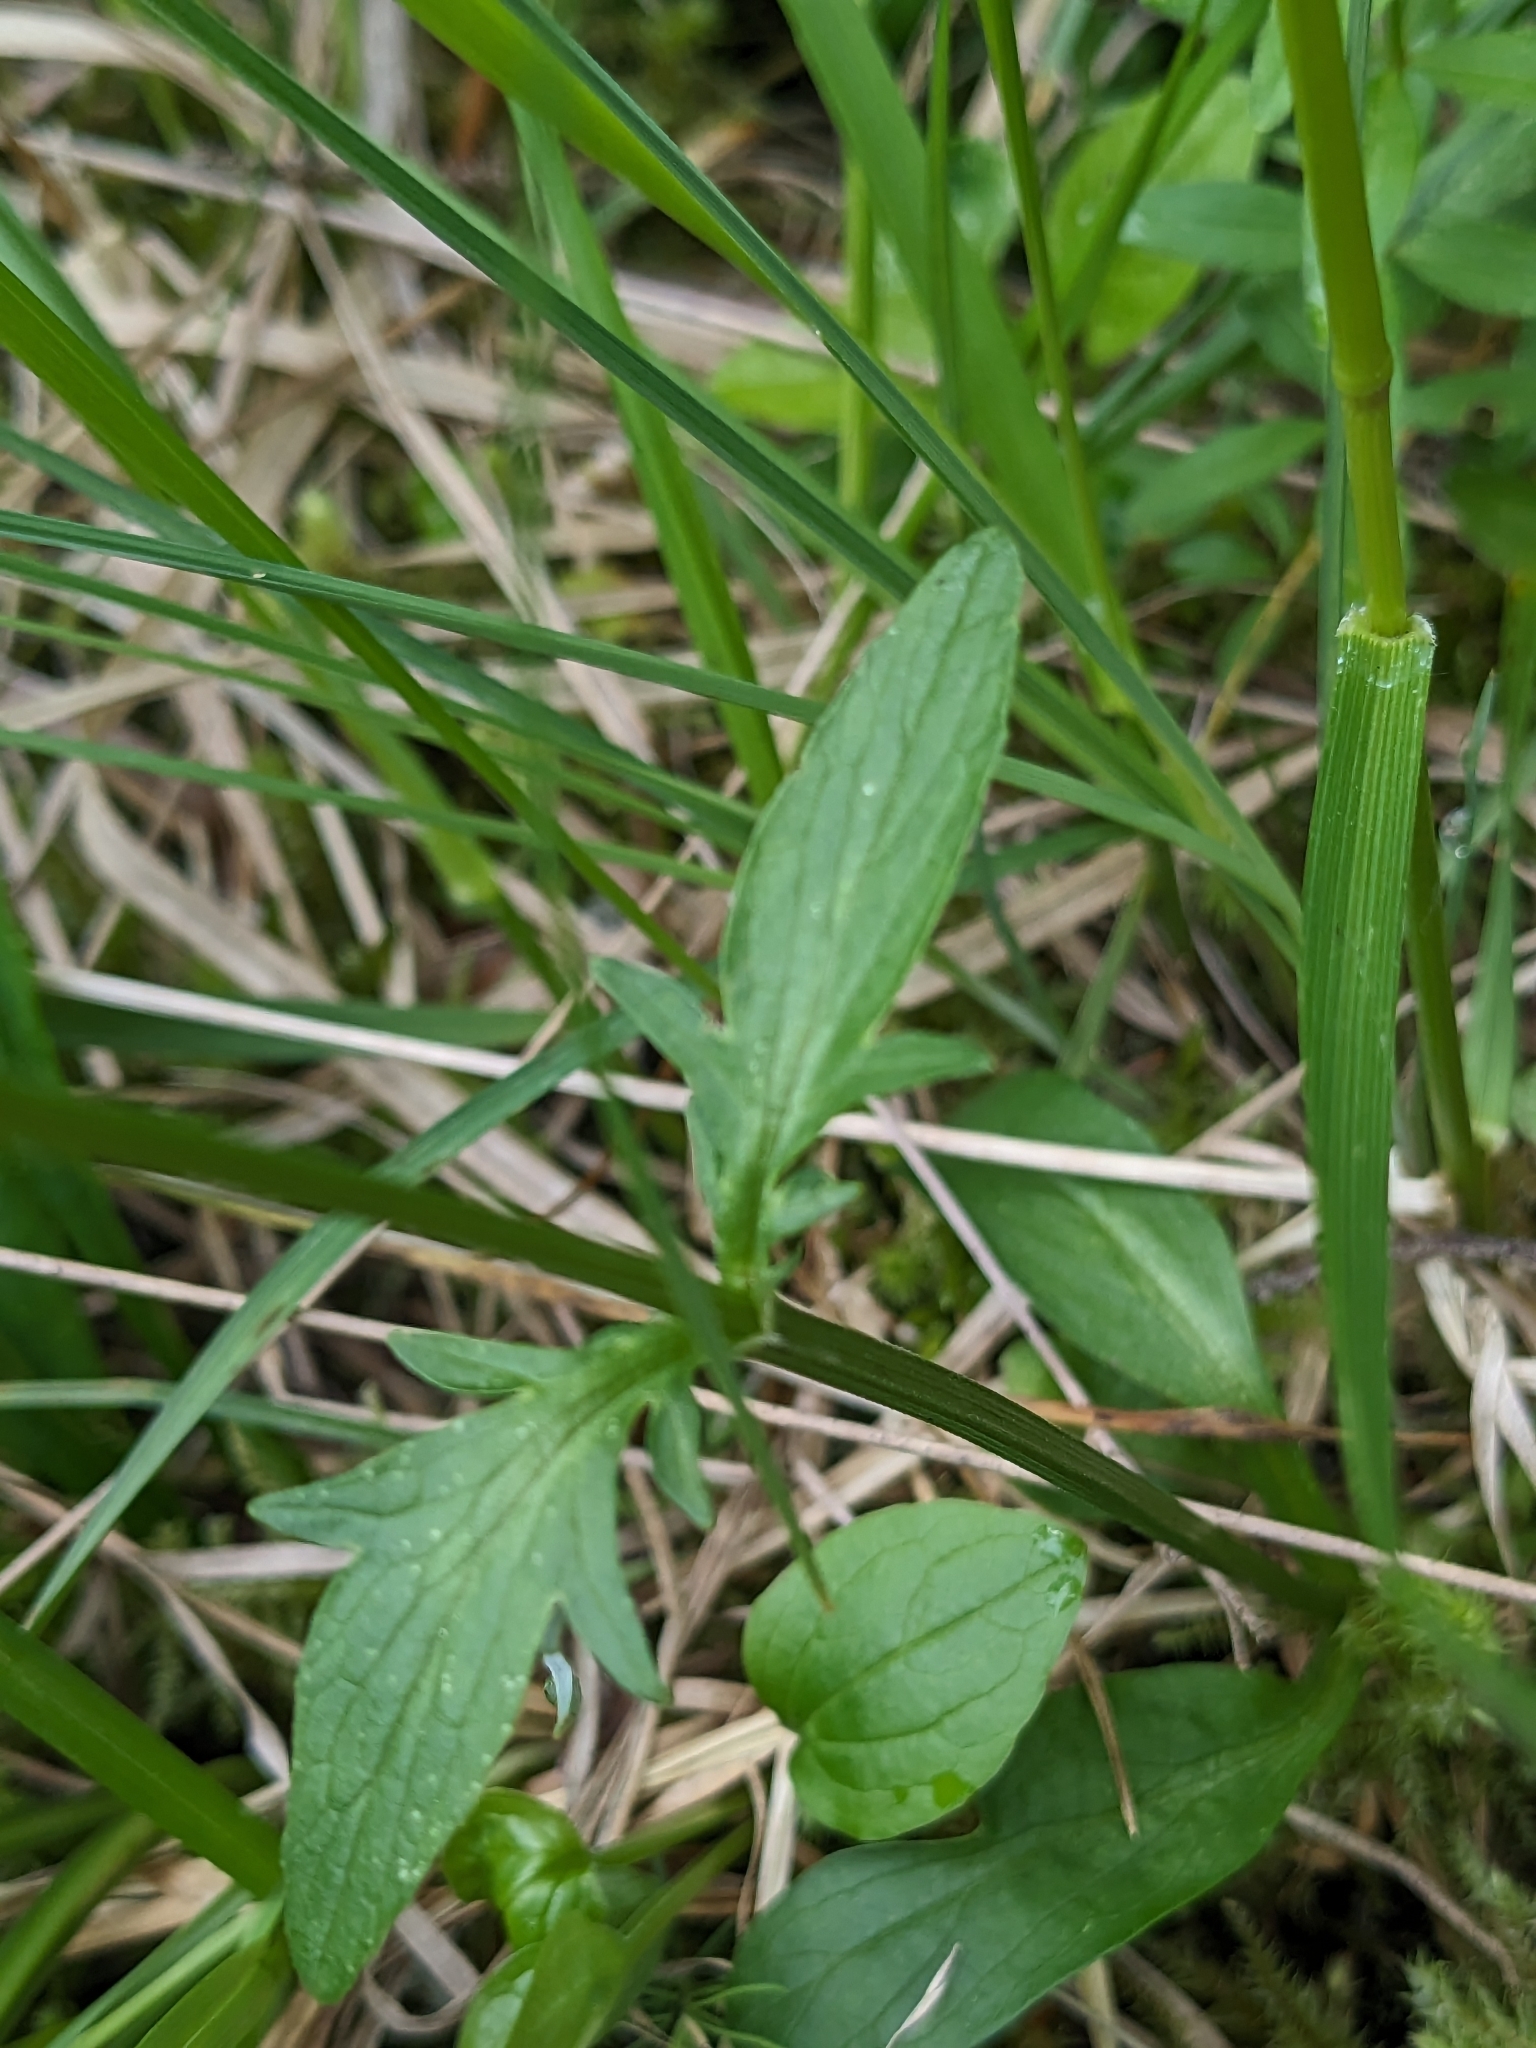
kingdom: Plantae
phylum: Tracheophyta
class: Magnoliopsida
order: Dipsacales
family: Caprifoliaceae
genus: Valeriana
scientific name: Valeriana dioica
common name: Marsh valerian
